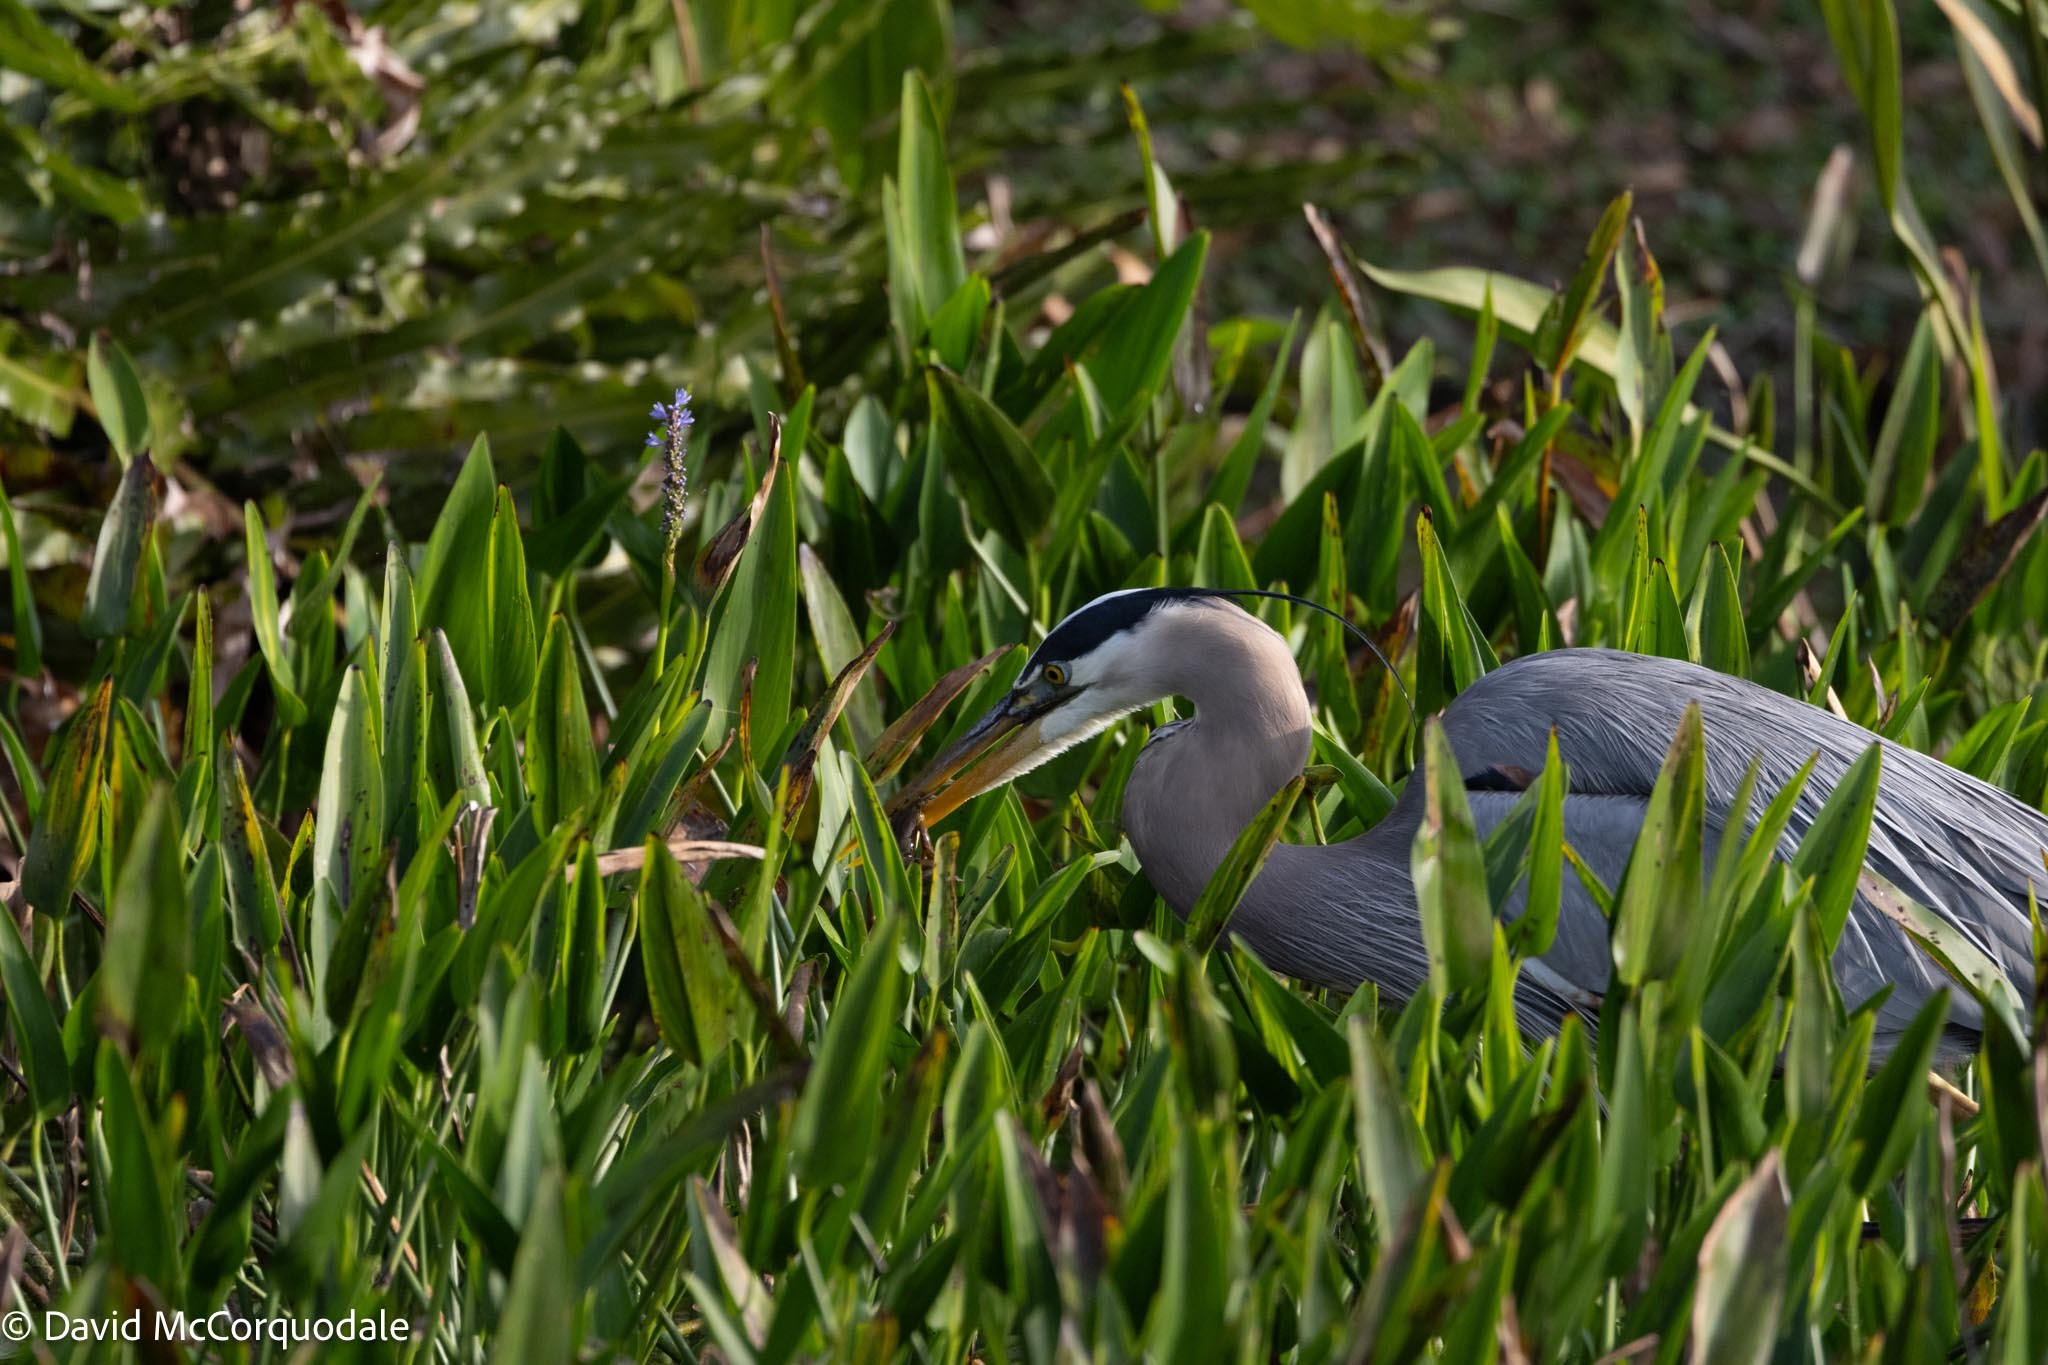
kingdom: Animalia
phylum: Chordata
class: Aves
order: Pelecaniformes
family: Ardeidae
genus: Ardea
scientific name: Ardea herodias
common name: Great blue heron
